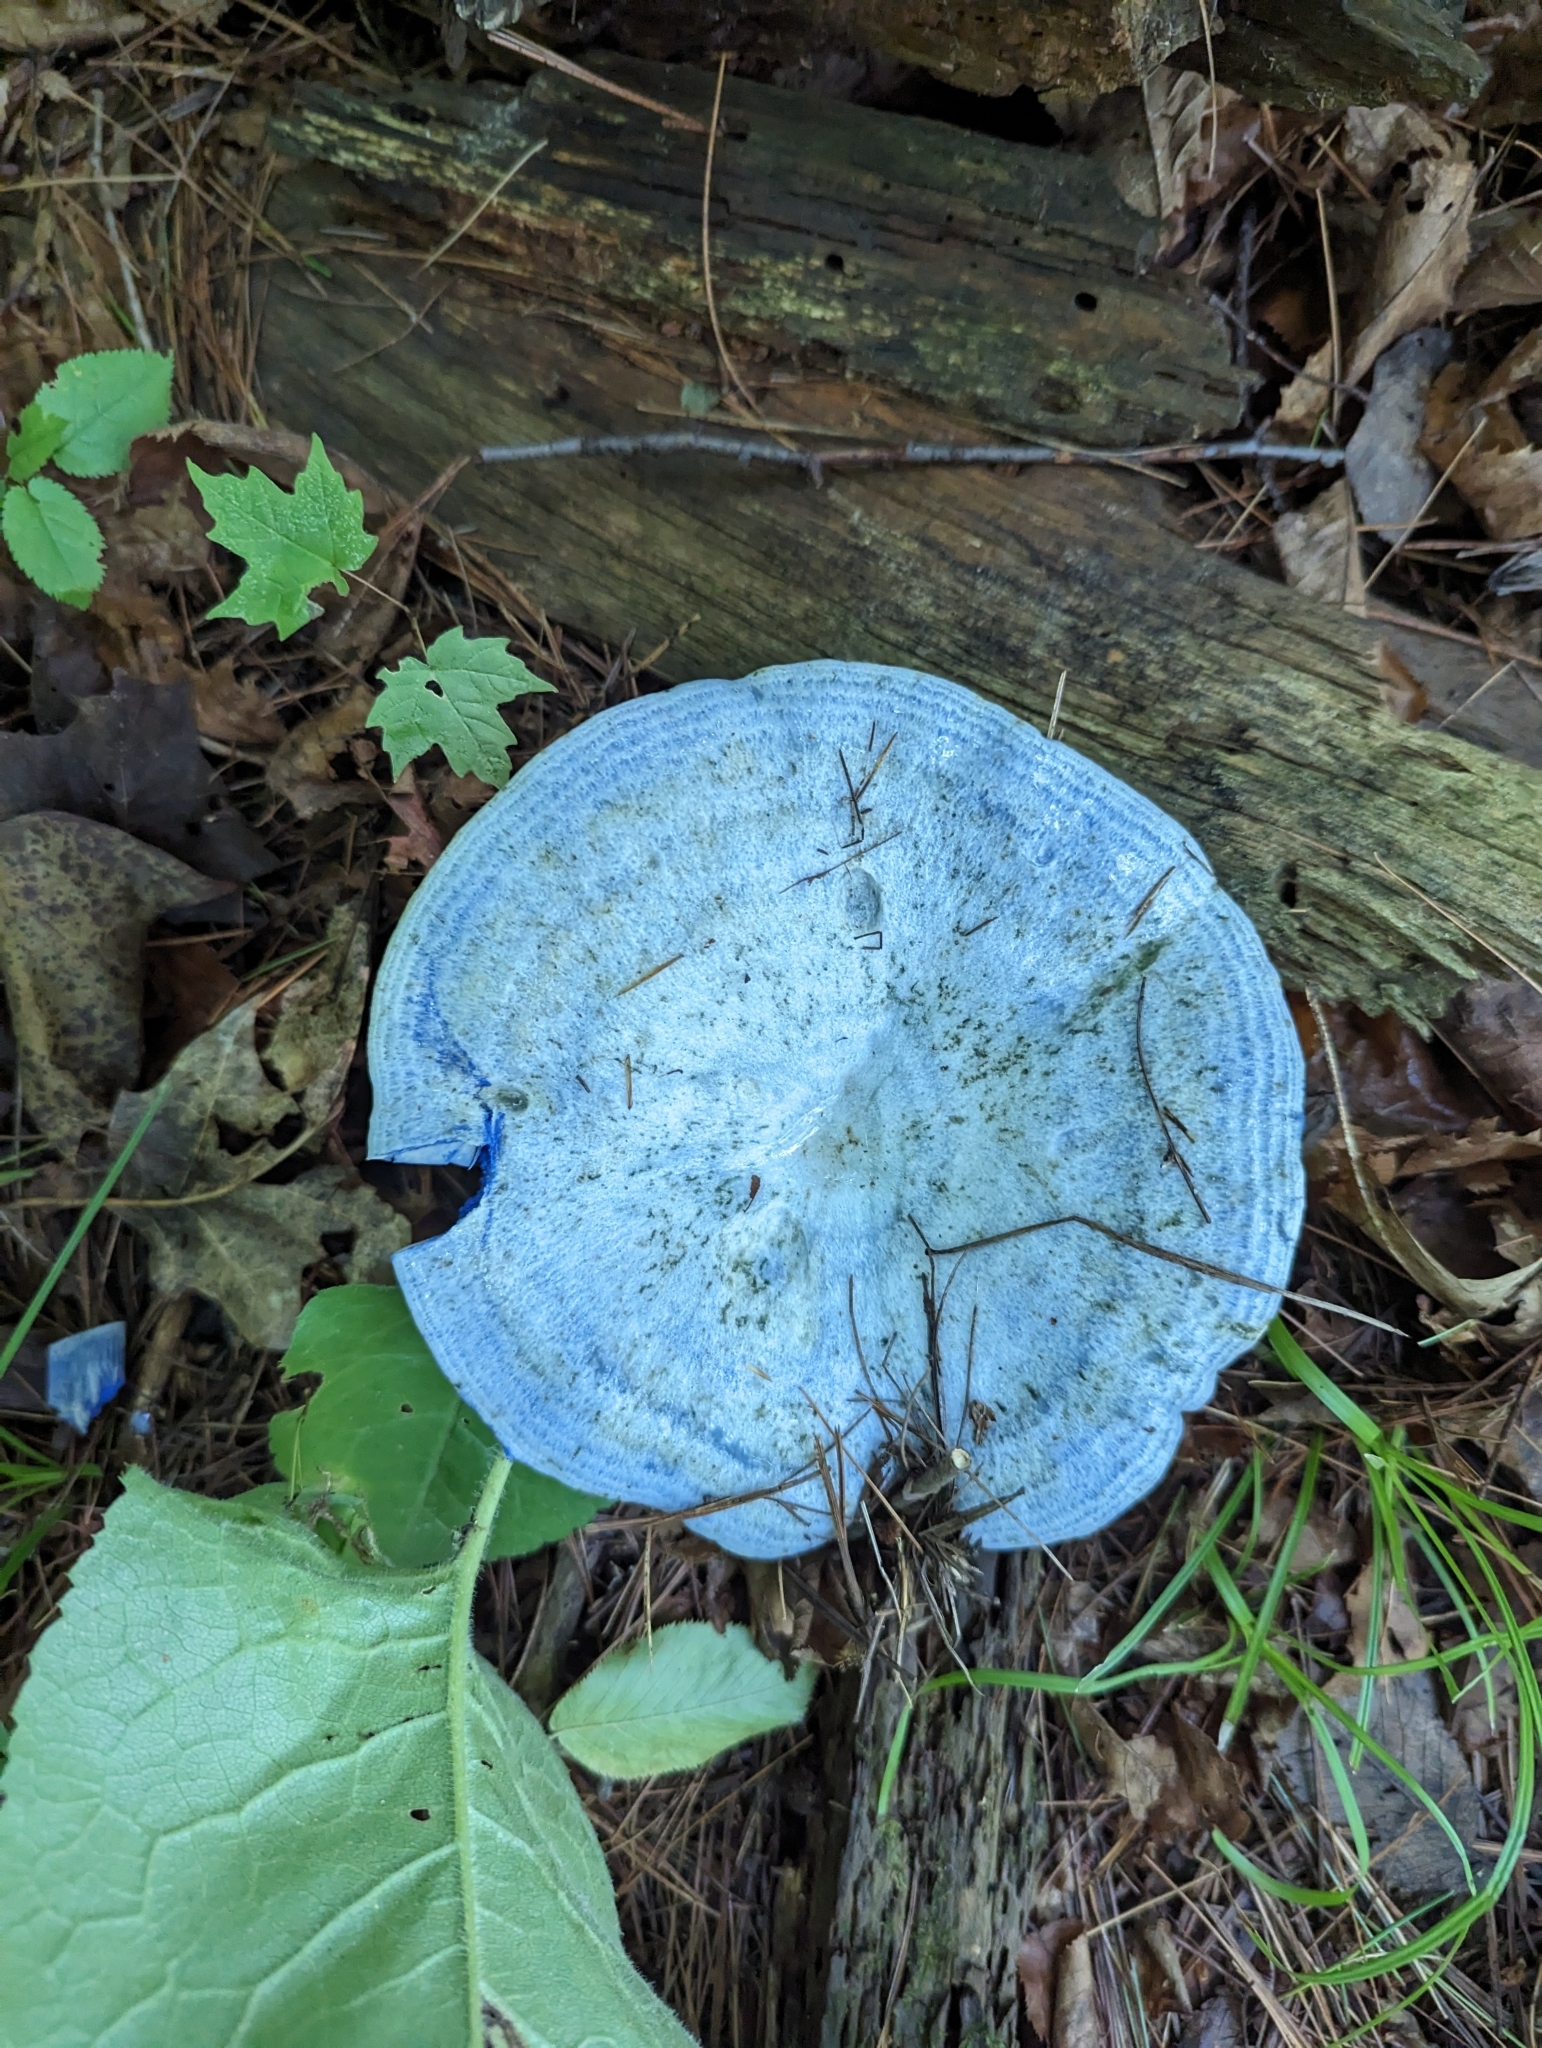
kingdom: Fungi
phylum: Basidiomycota
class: Agaricomycetes
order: Russulales
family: Russulaceae
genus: Lactarius
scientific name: Lactarius indigo
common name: Indigo milk cap
